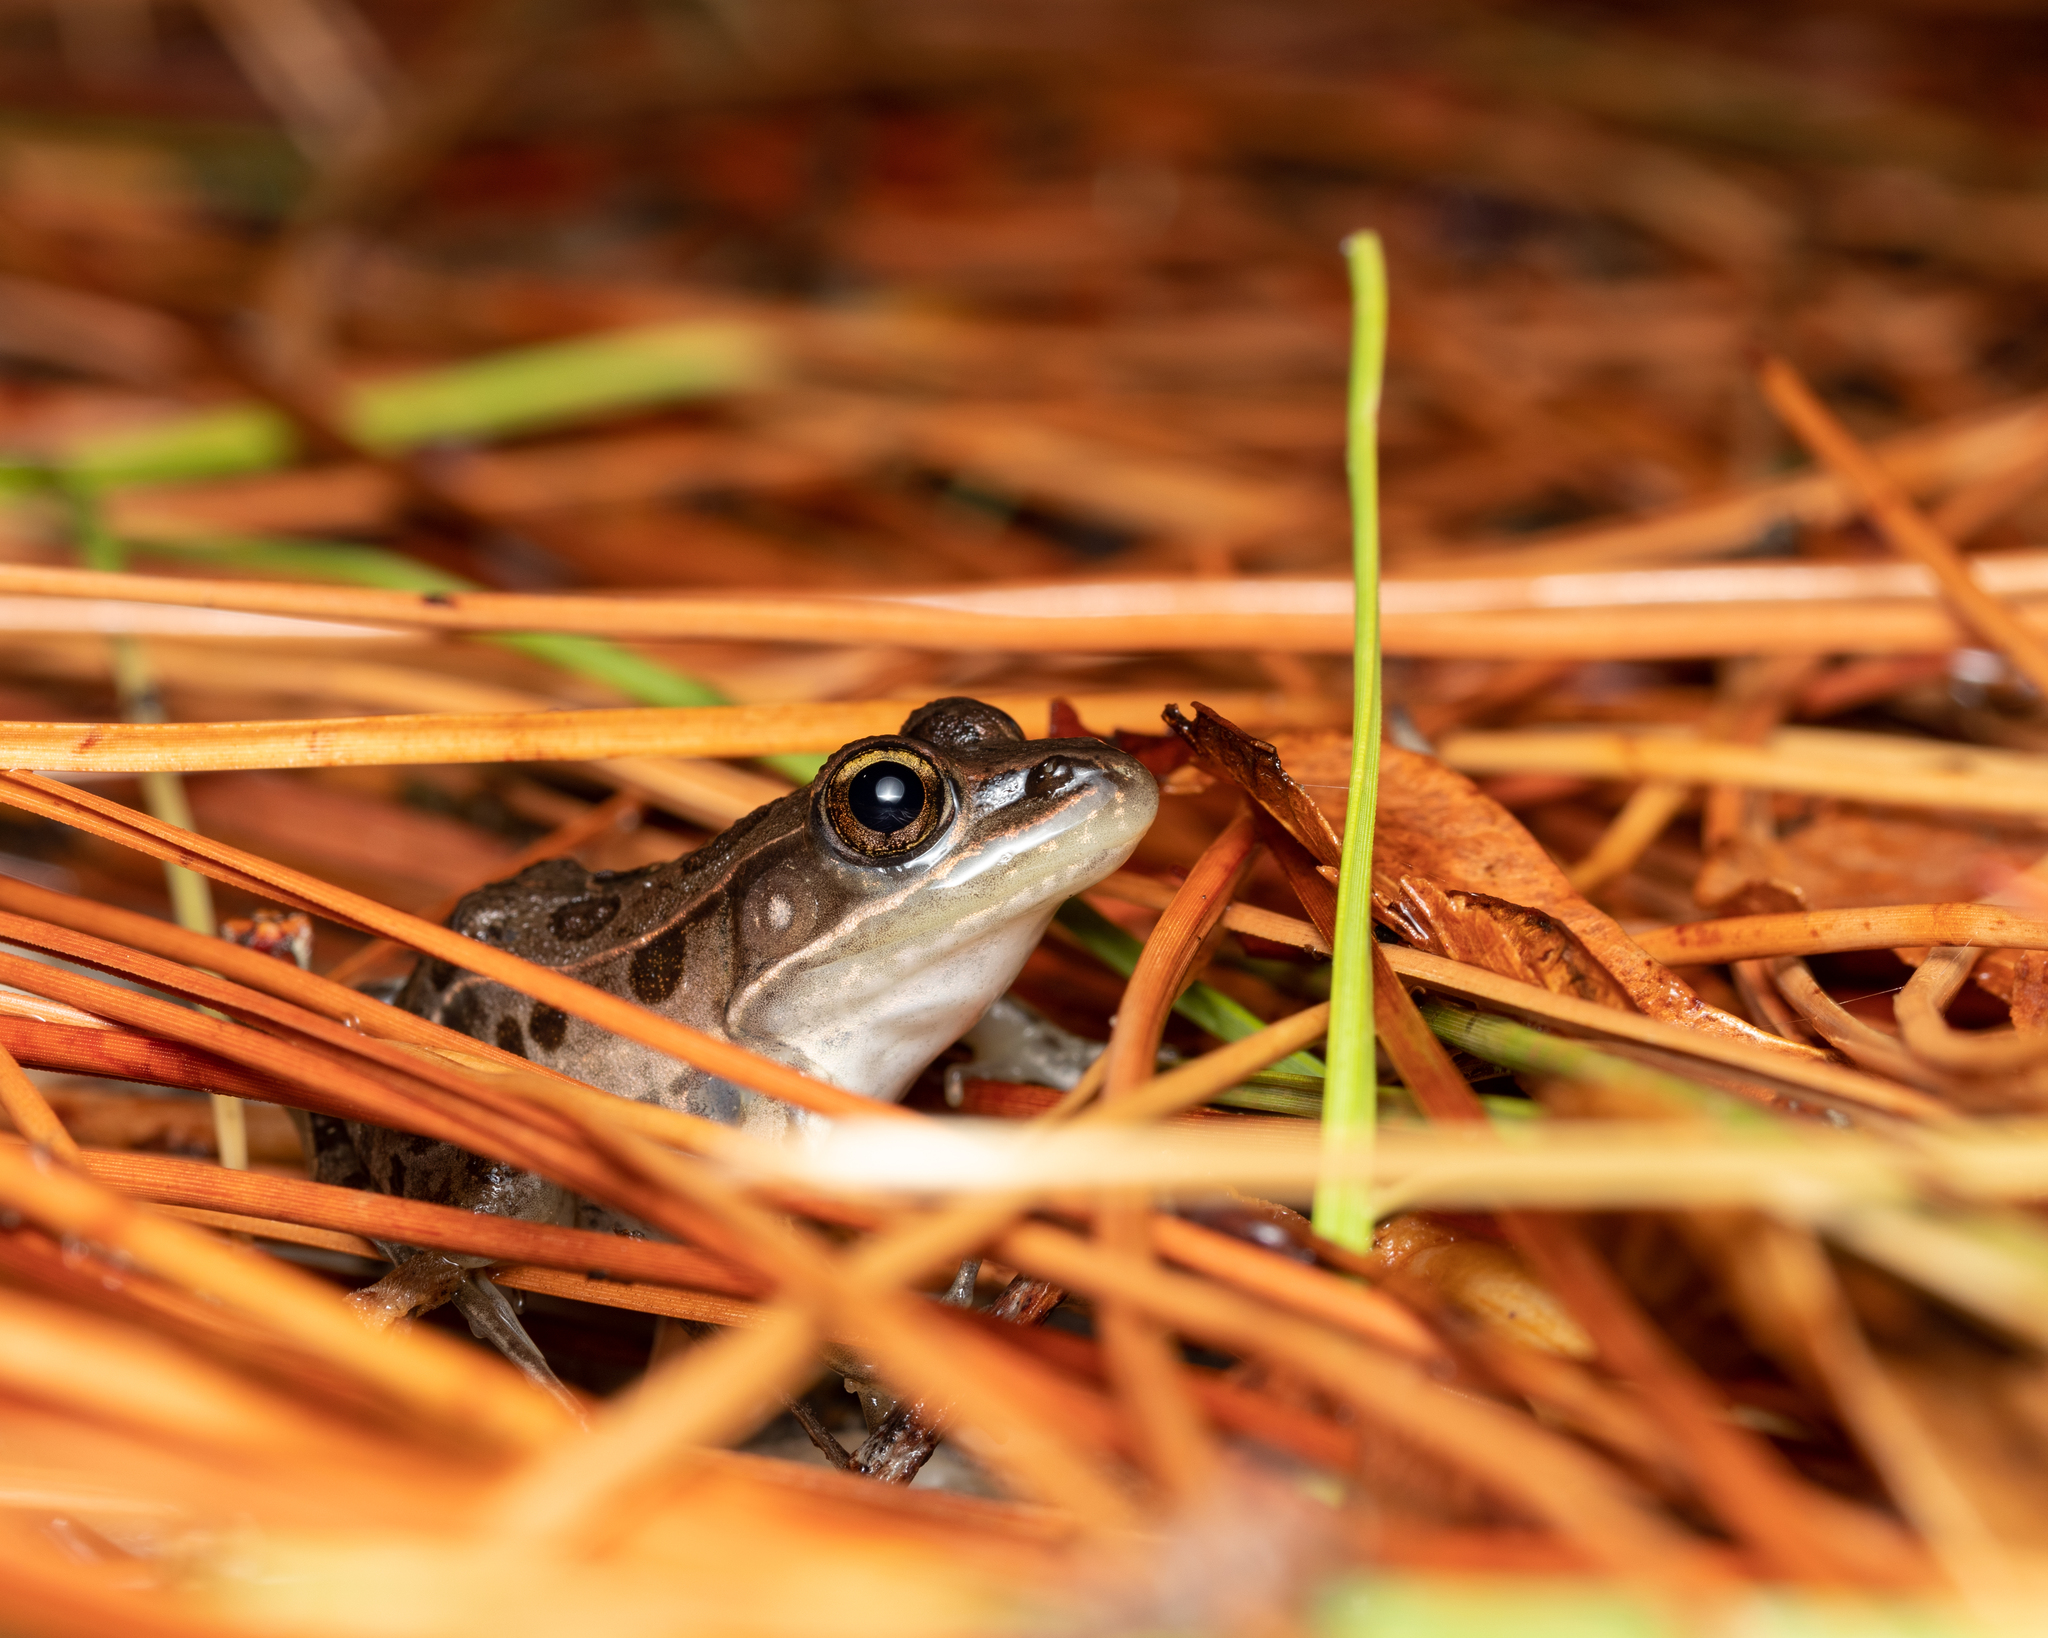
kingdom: Animalia
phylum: Chordata
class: Amphibia
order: Anura
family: Ranidae
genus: Lithobates
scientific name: Lithobates sphenocephalus
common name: Southern leopard frog
